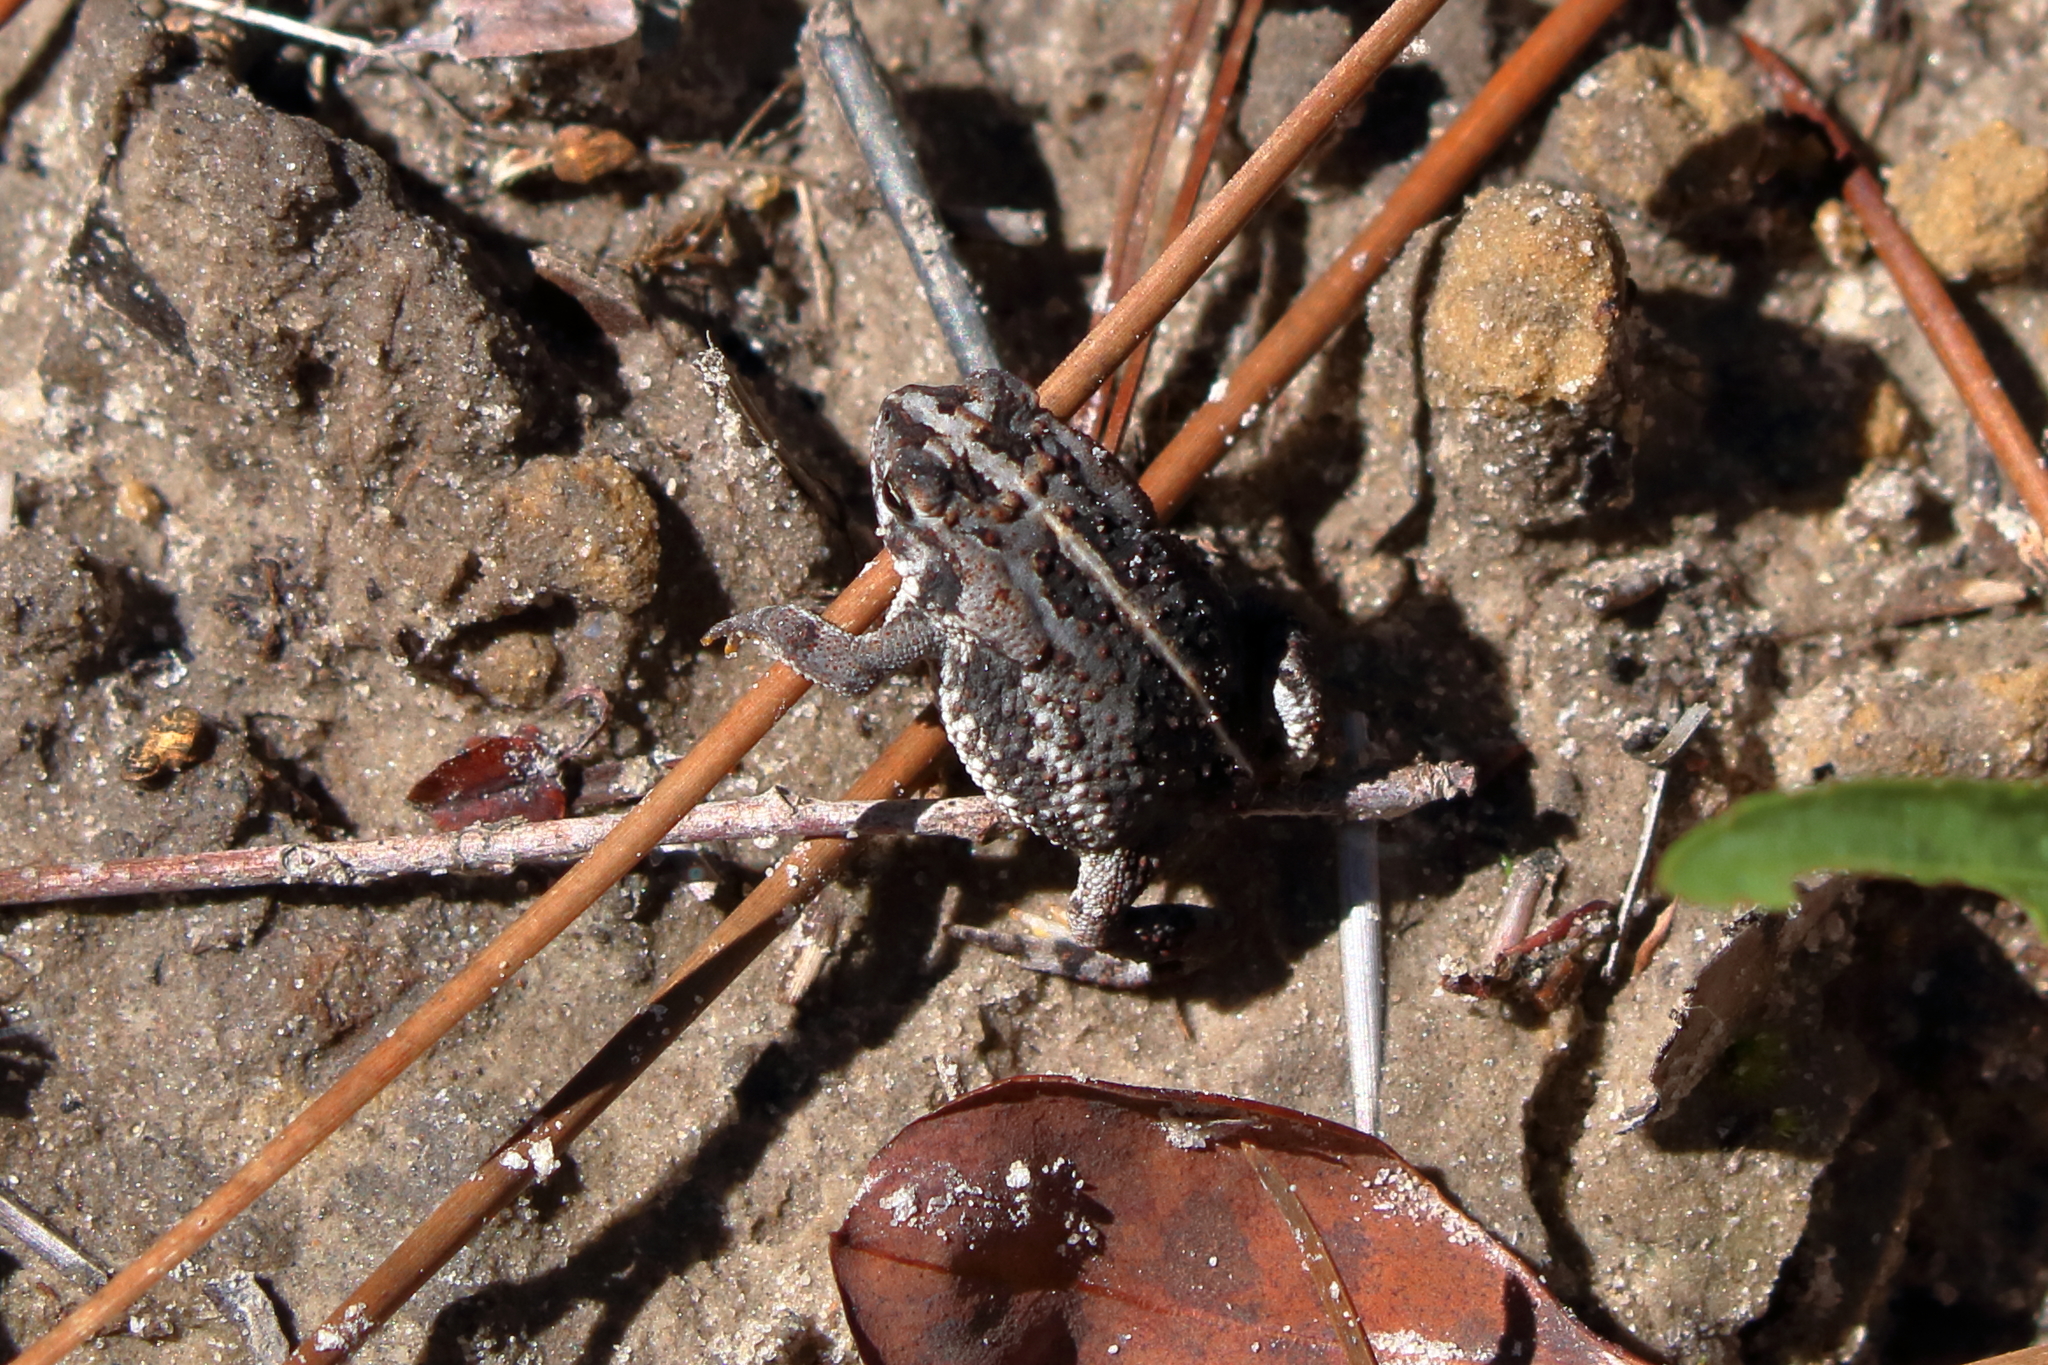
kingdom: Animalia
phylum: Chordata
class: Amphibia
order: Anura
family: Bufonidae
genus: Anaxyrus
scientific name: Anaxyrus quercicus
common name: Oak toad
